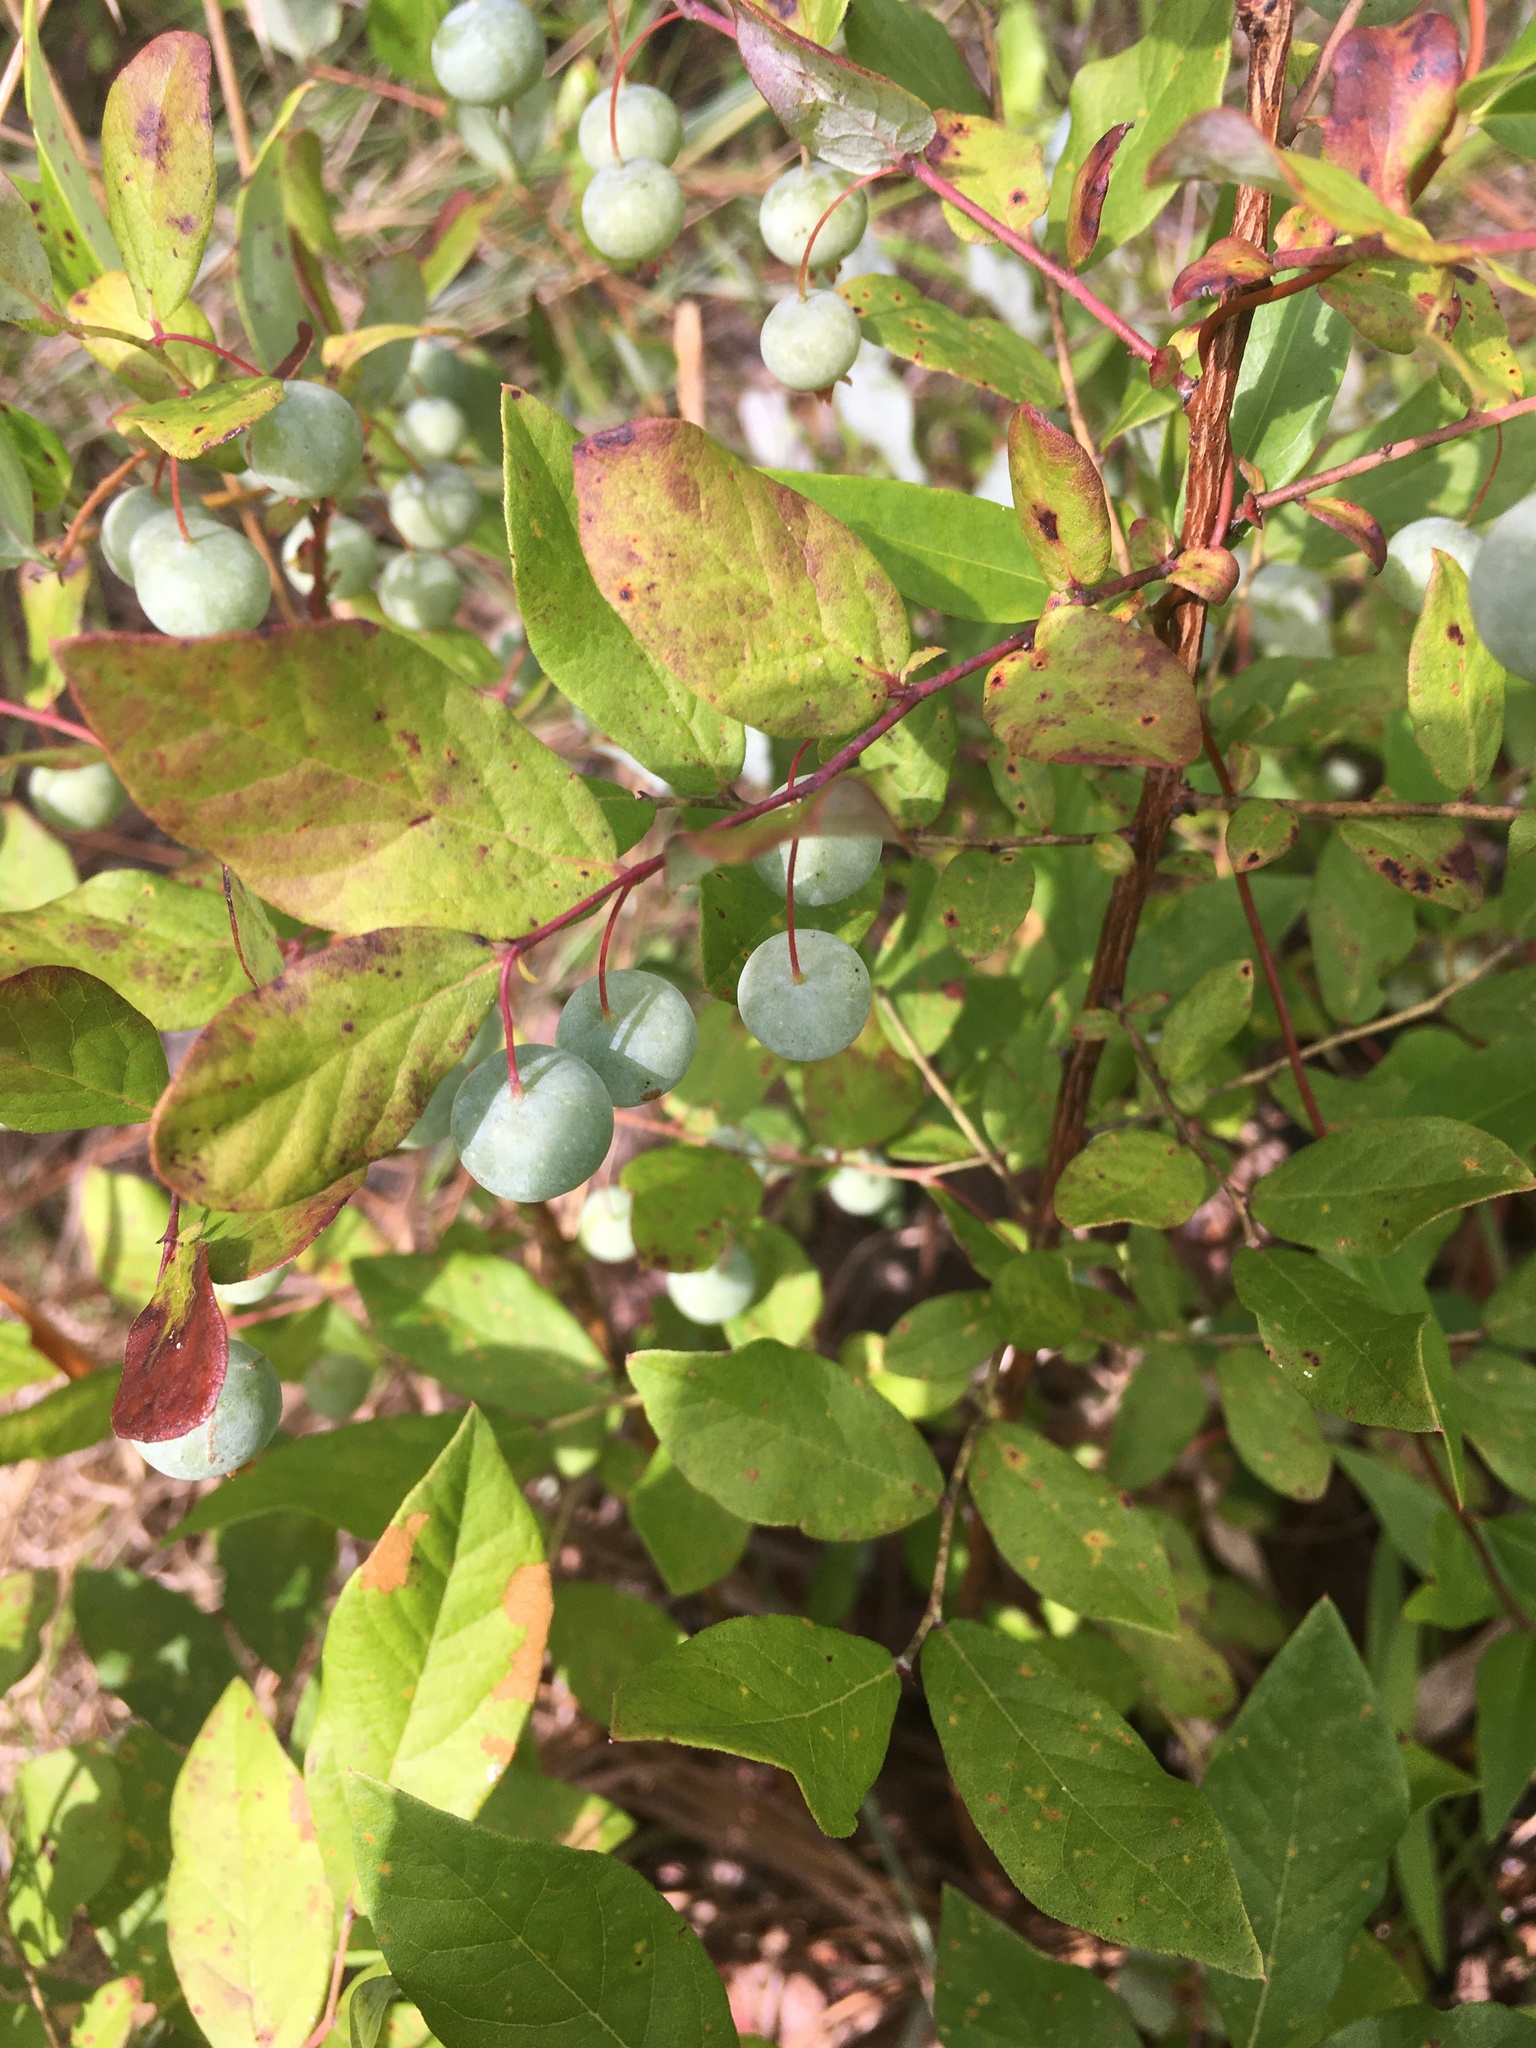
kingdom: Plantae
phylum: Tracheophyta
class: Magnoliopsida
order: Ericales
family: Ericaceae
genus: Vaccinium
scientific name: Vaccinium stamineum
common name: Deerberry
